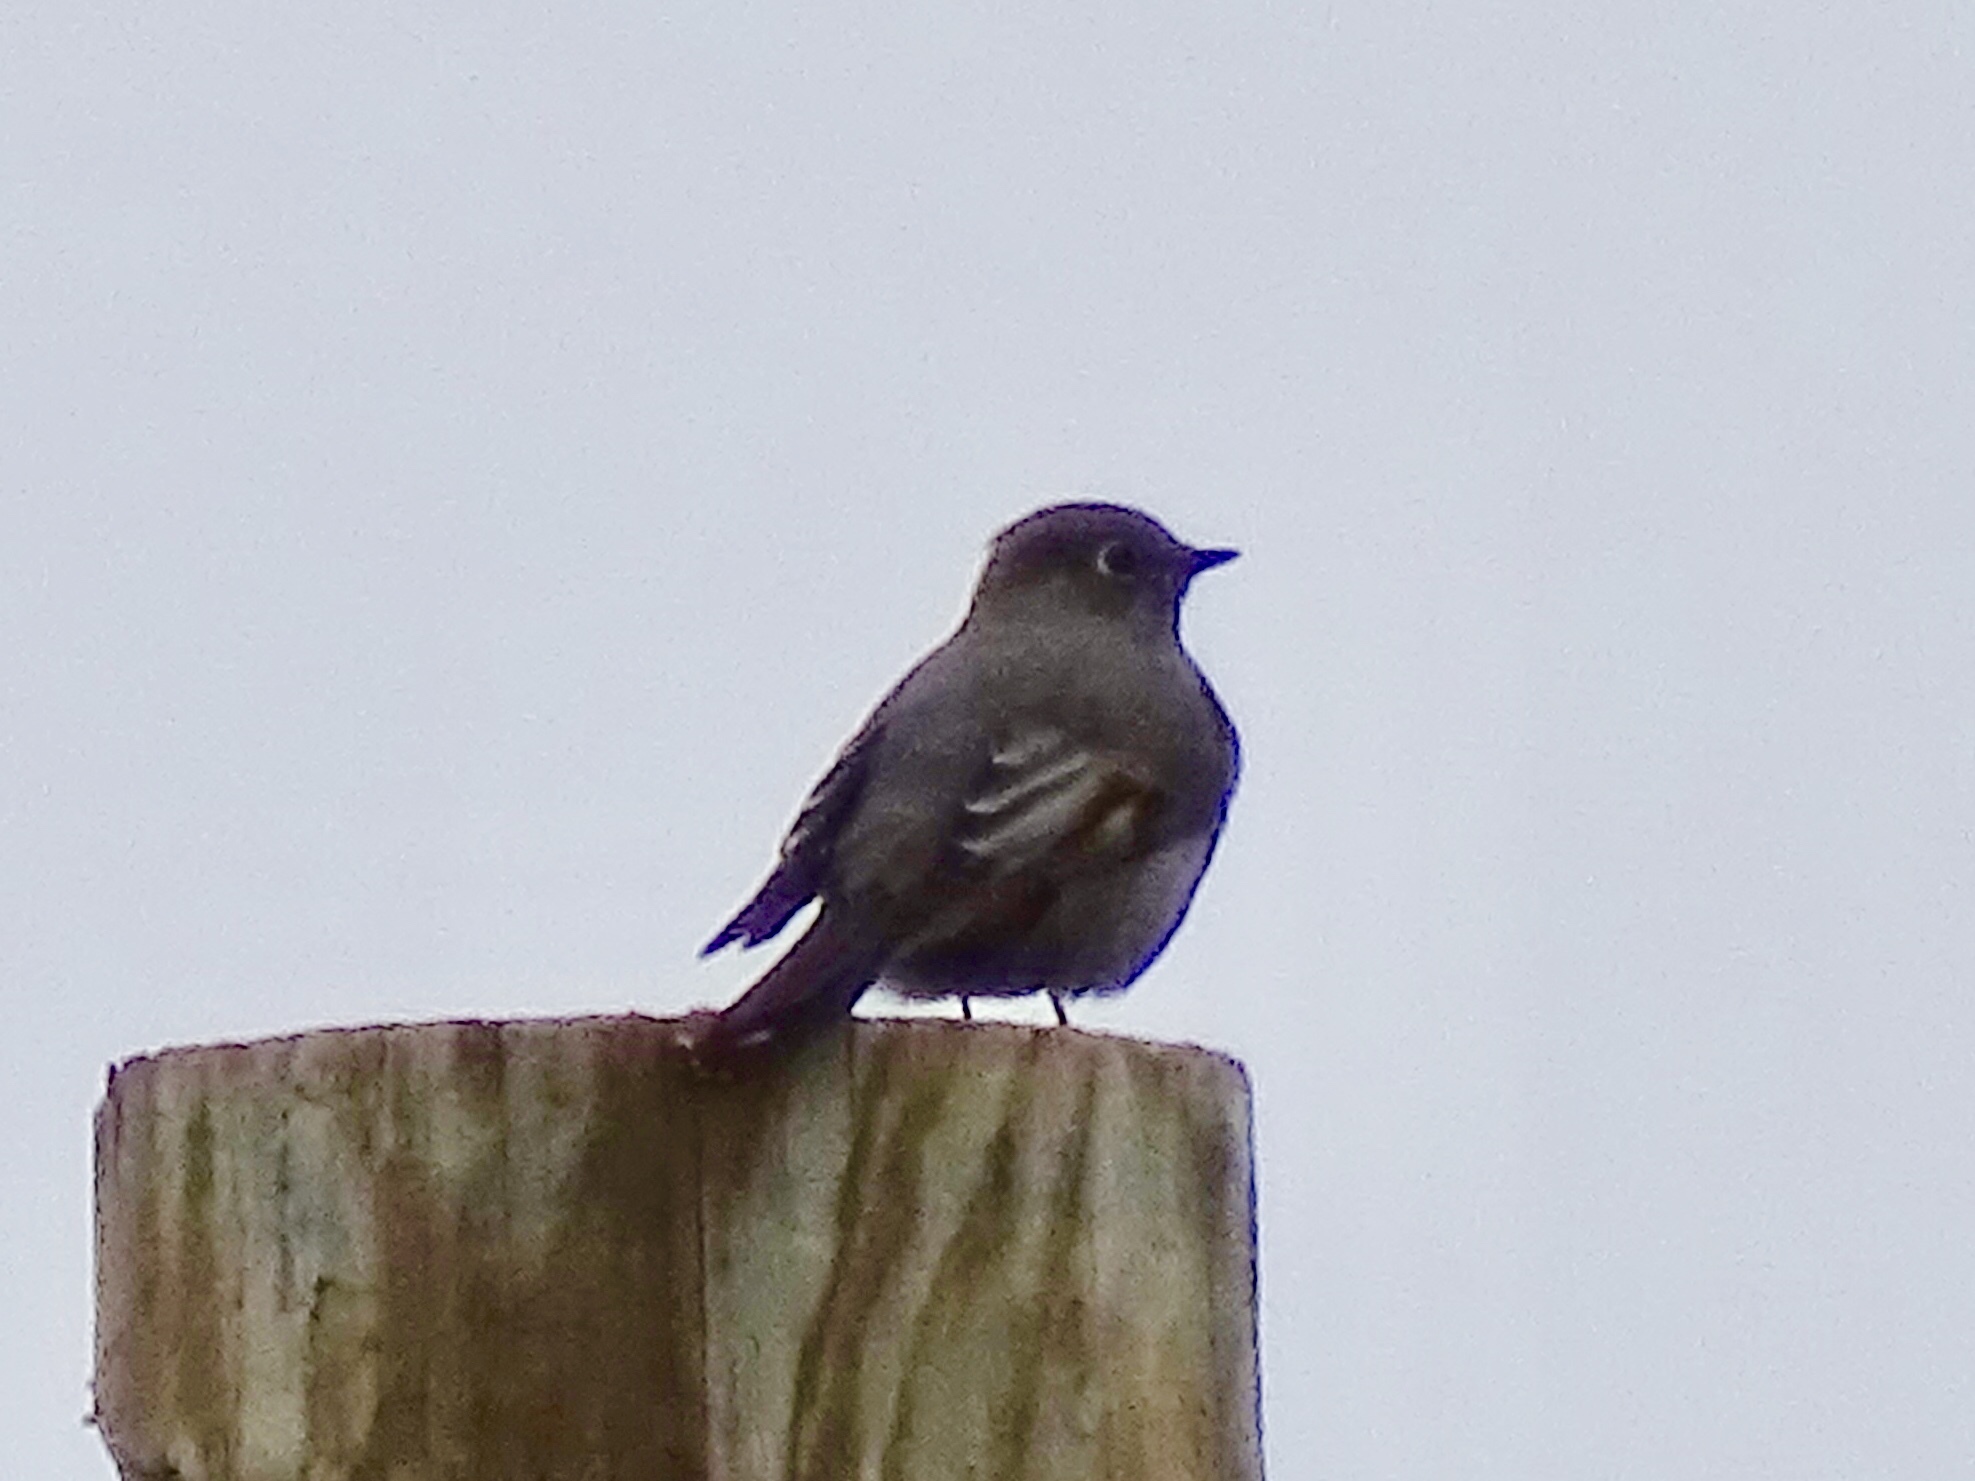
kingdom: Animalia
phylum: Chordata
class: Aves
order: Passeriformes
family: Turdidae
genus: Myadestes
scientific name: Myadestes townsendi
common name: Townsend's solitaire
